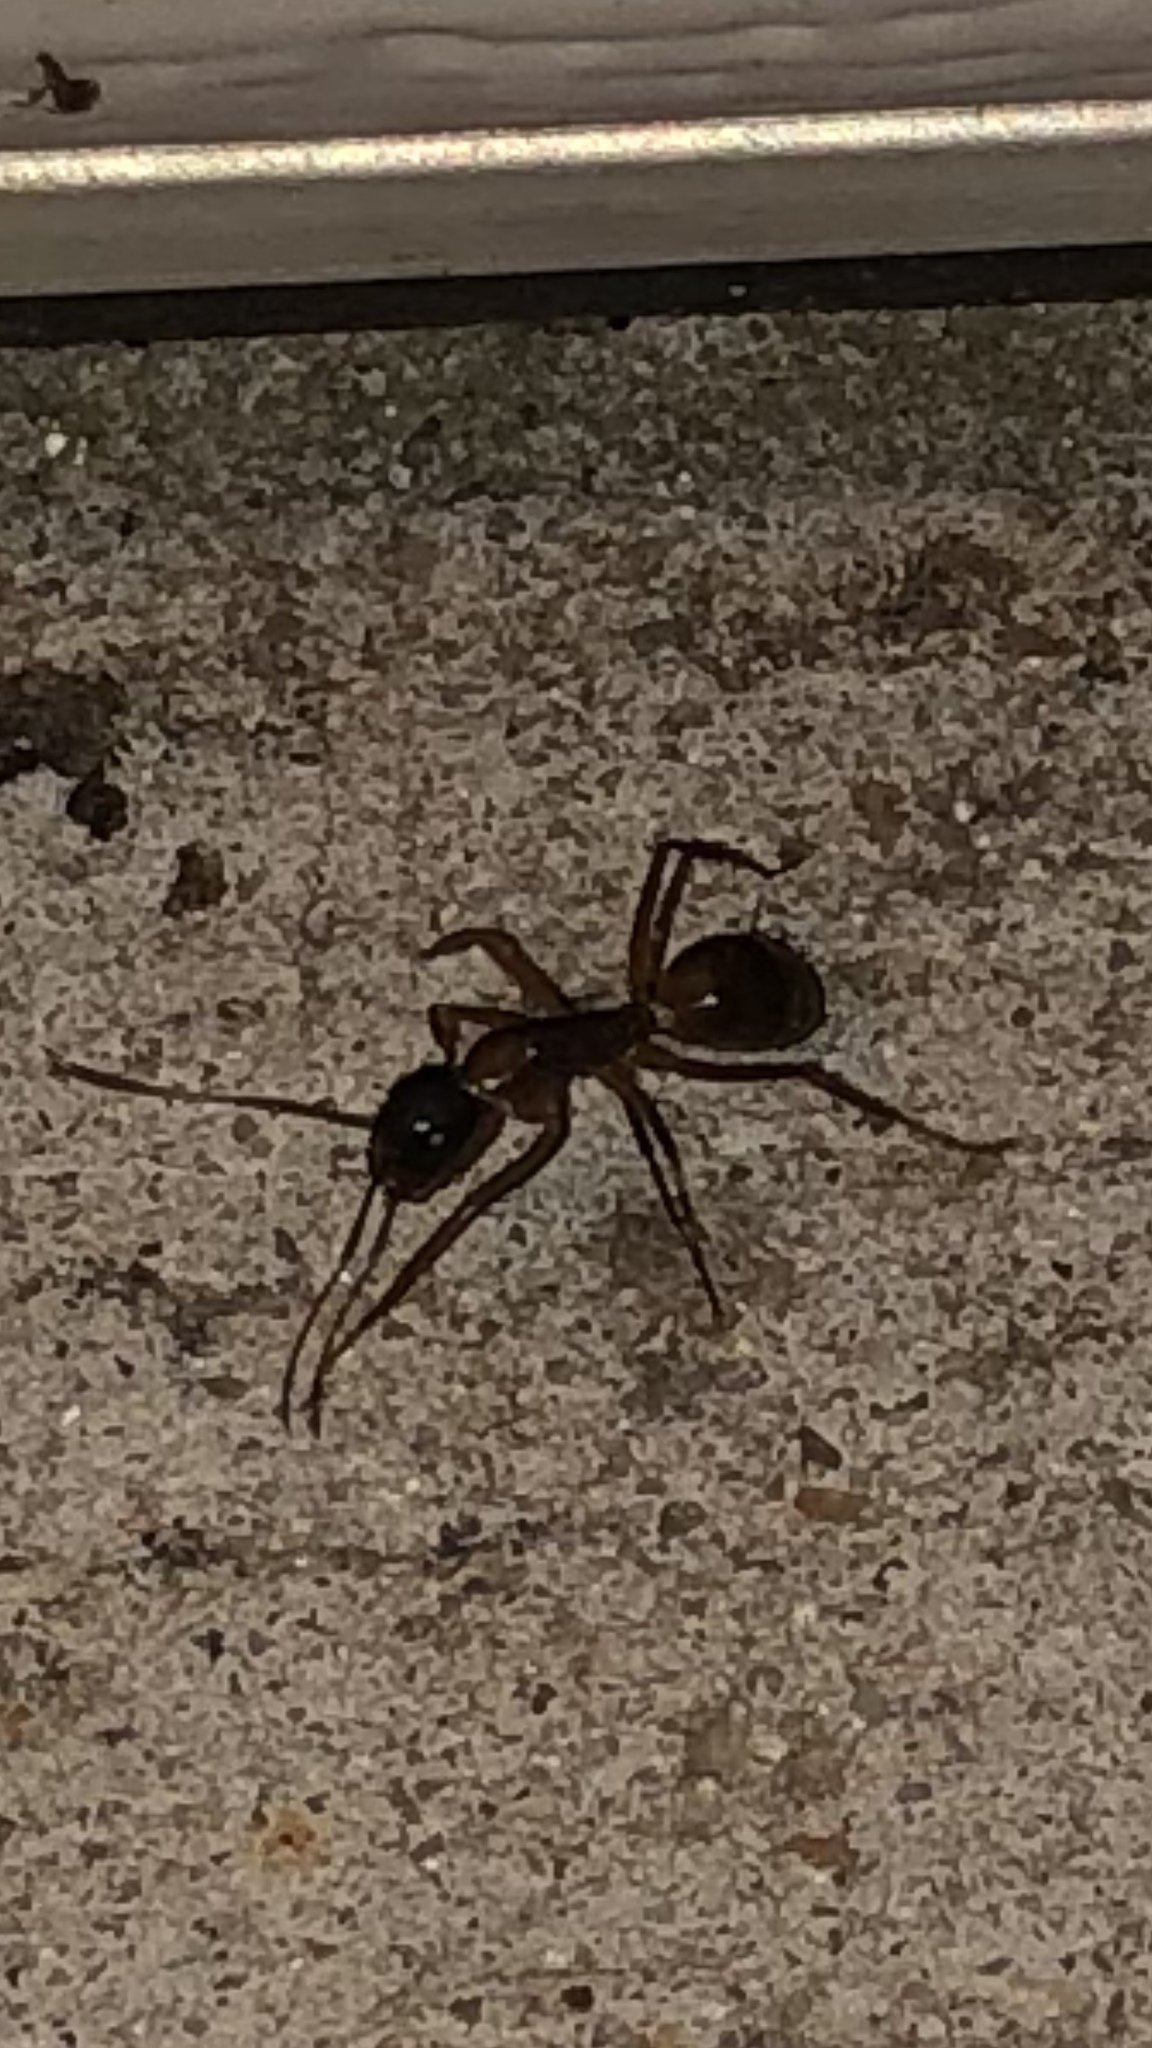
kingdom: Animalia
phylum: Arthropoda
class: Insecta
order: Hymenoptera
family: Formicidae
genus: Camponotus
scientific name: Camponotus americanus
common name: American carpenter ant
